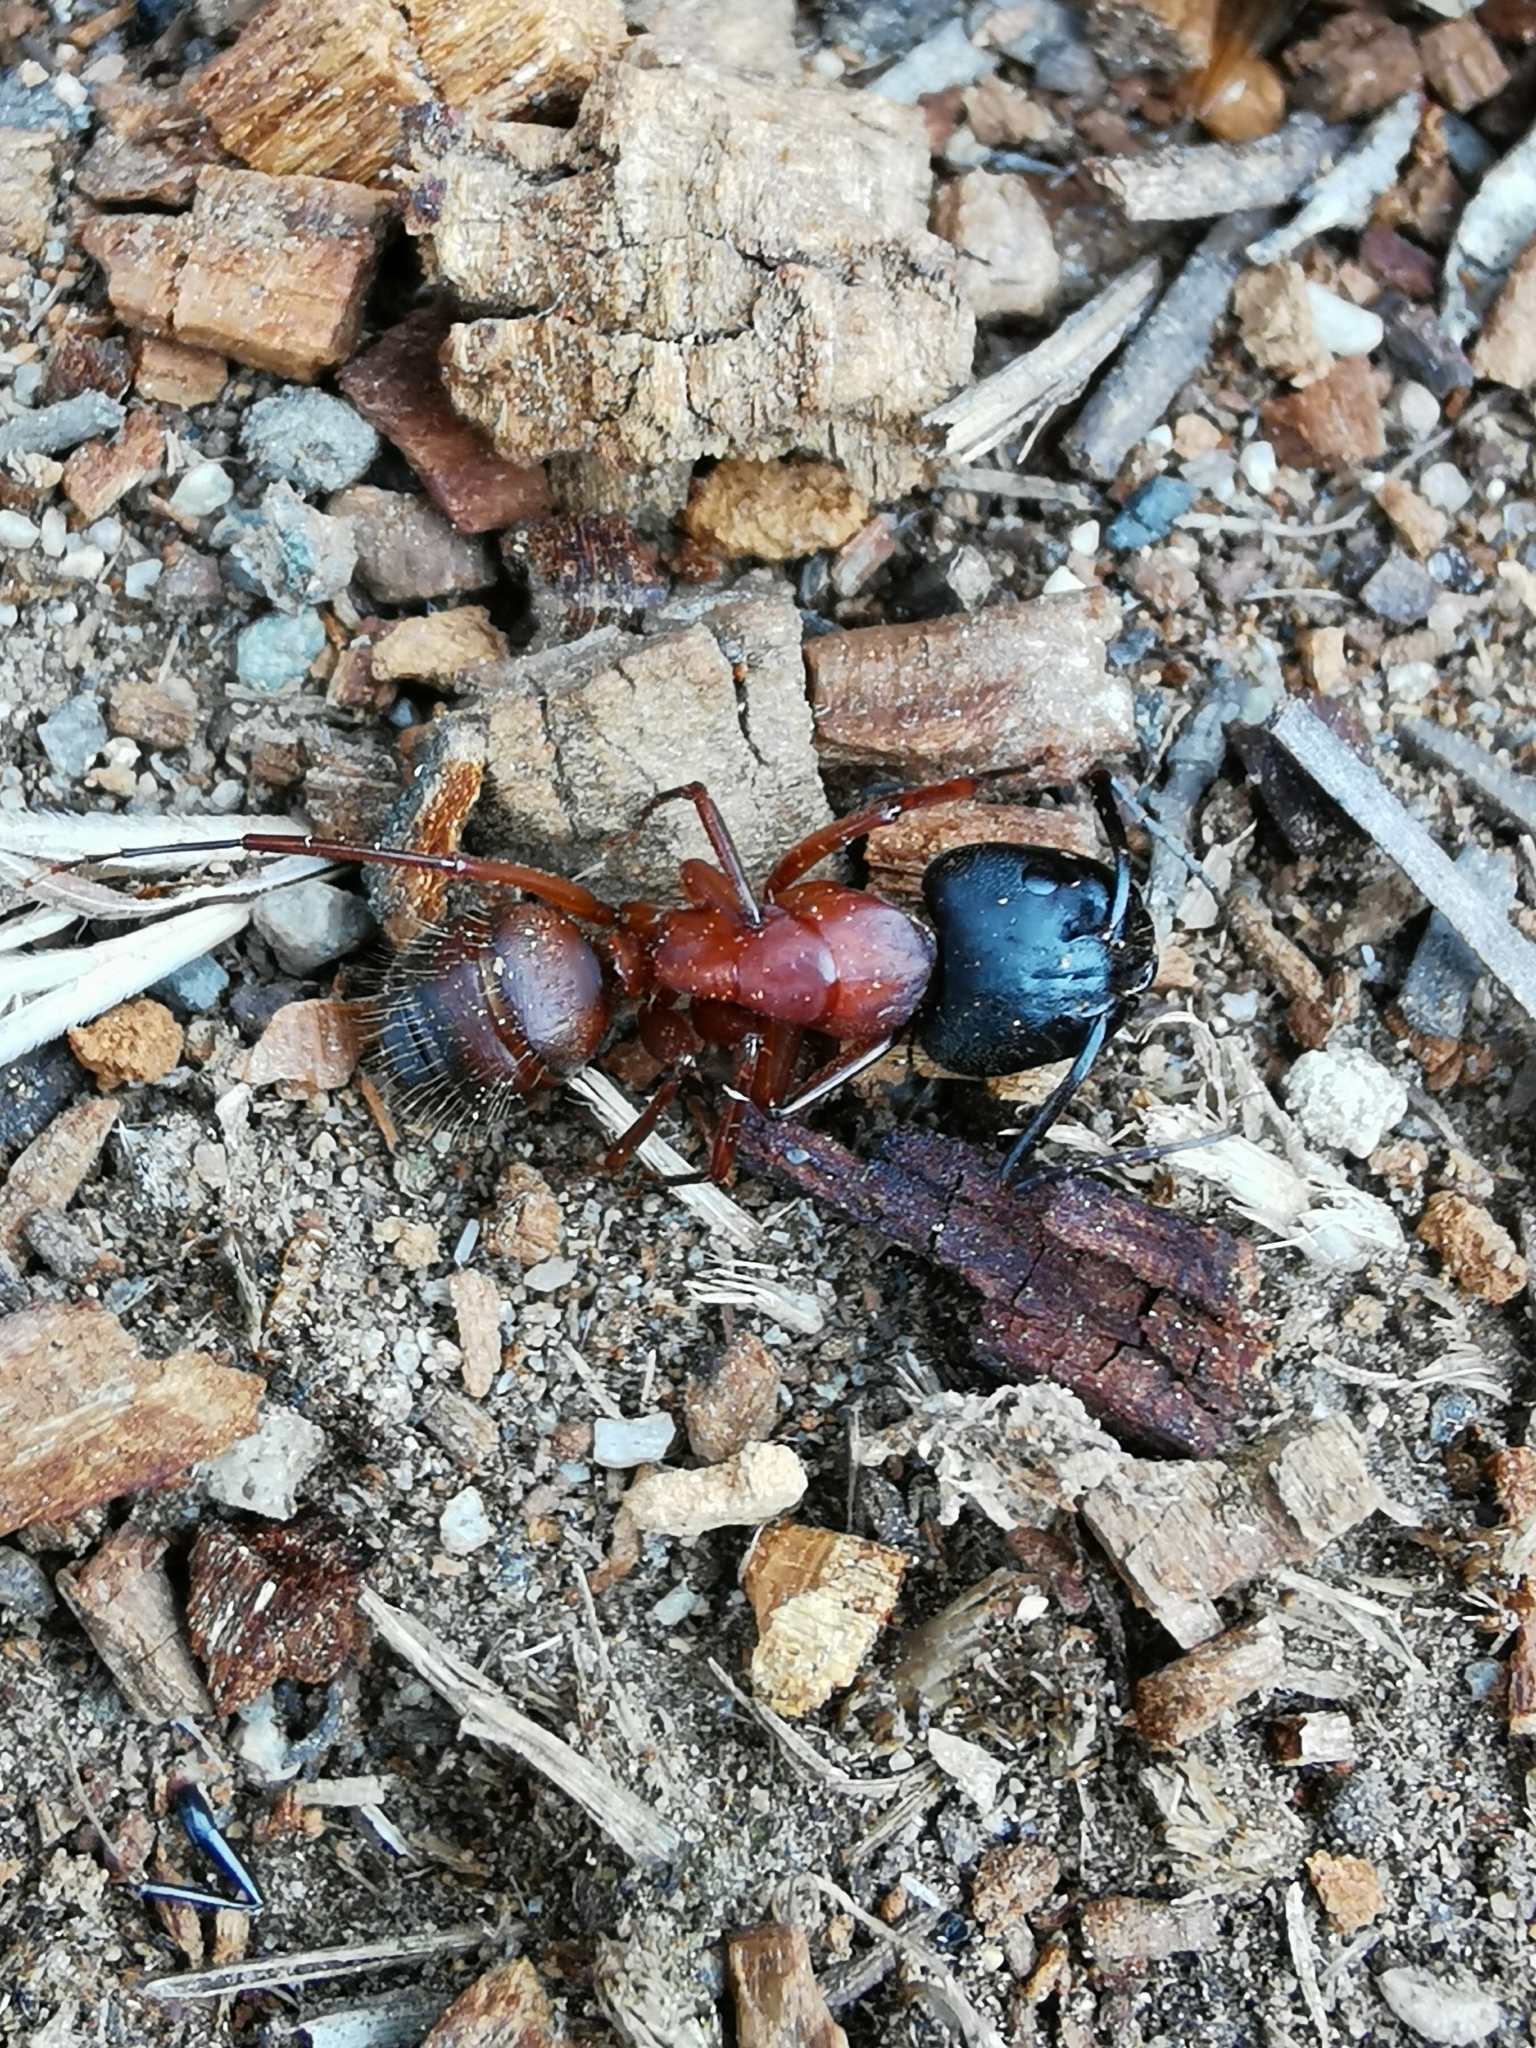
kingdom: Animalia
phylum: Arthropoda
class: Insecta
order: Hymenoptera
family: Formicidae
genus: Camponotus
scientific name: Camponotus vicinus
